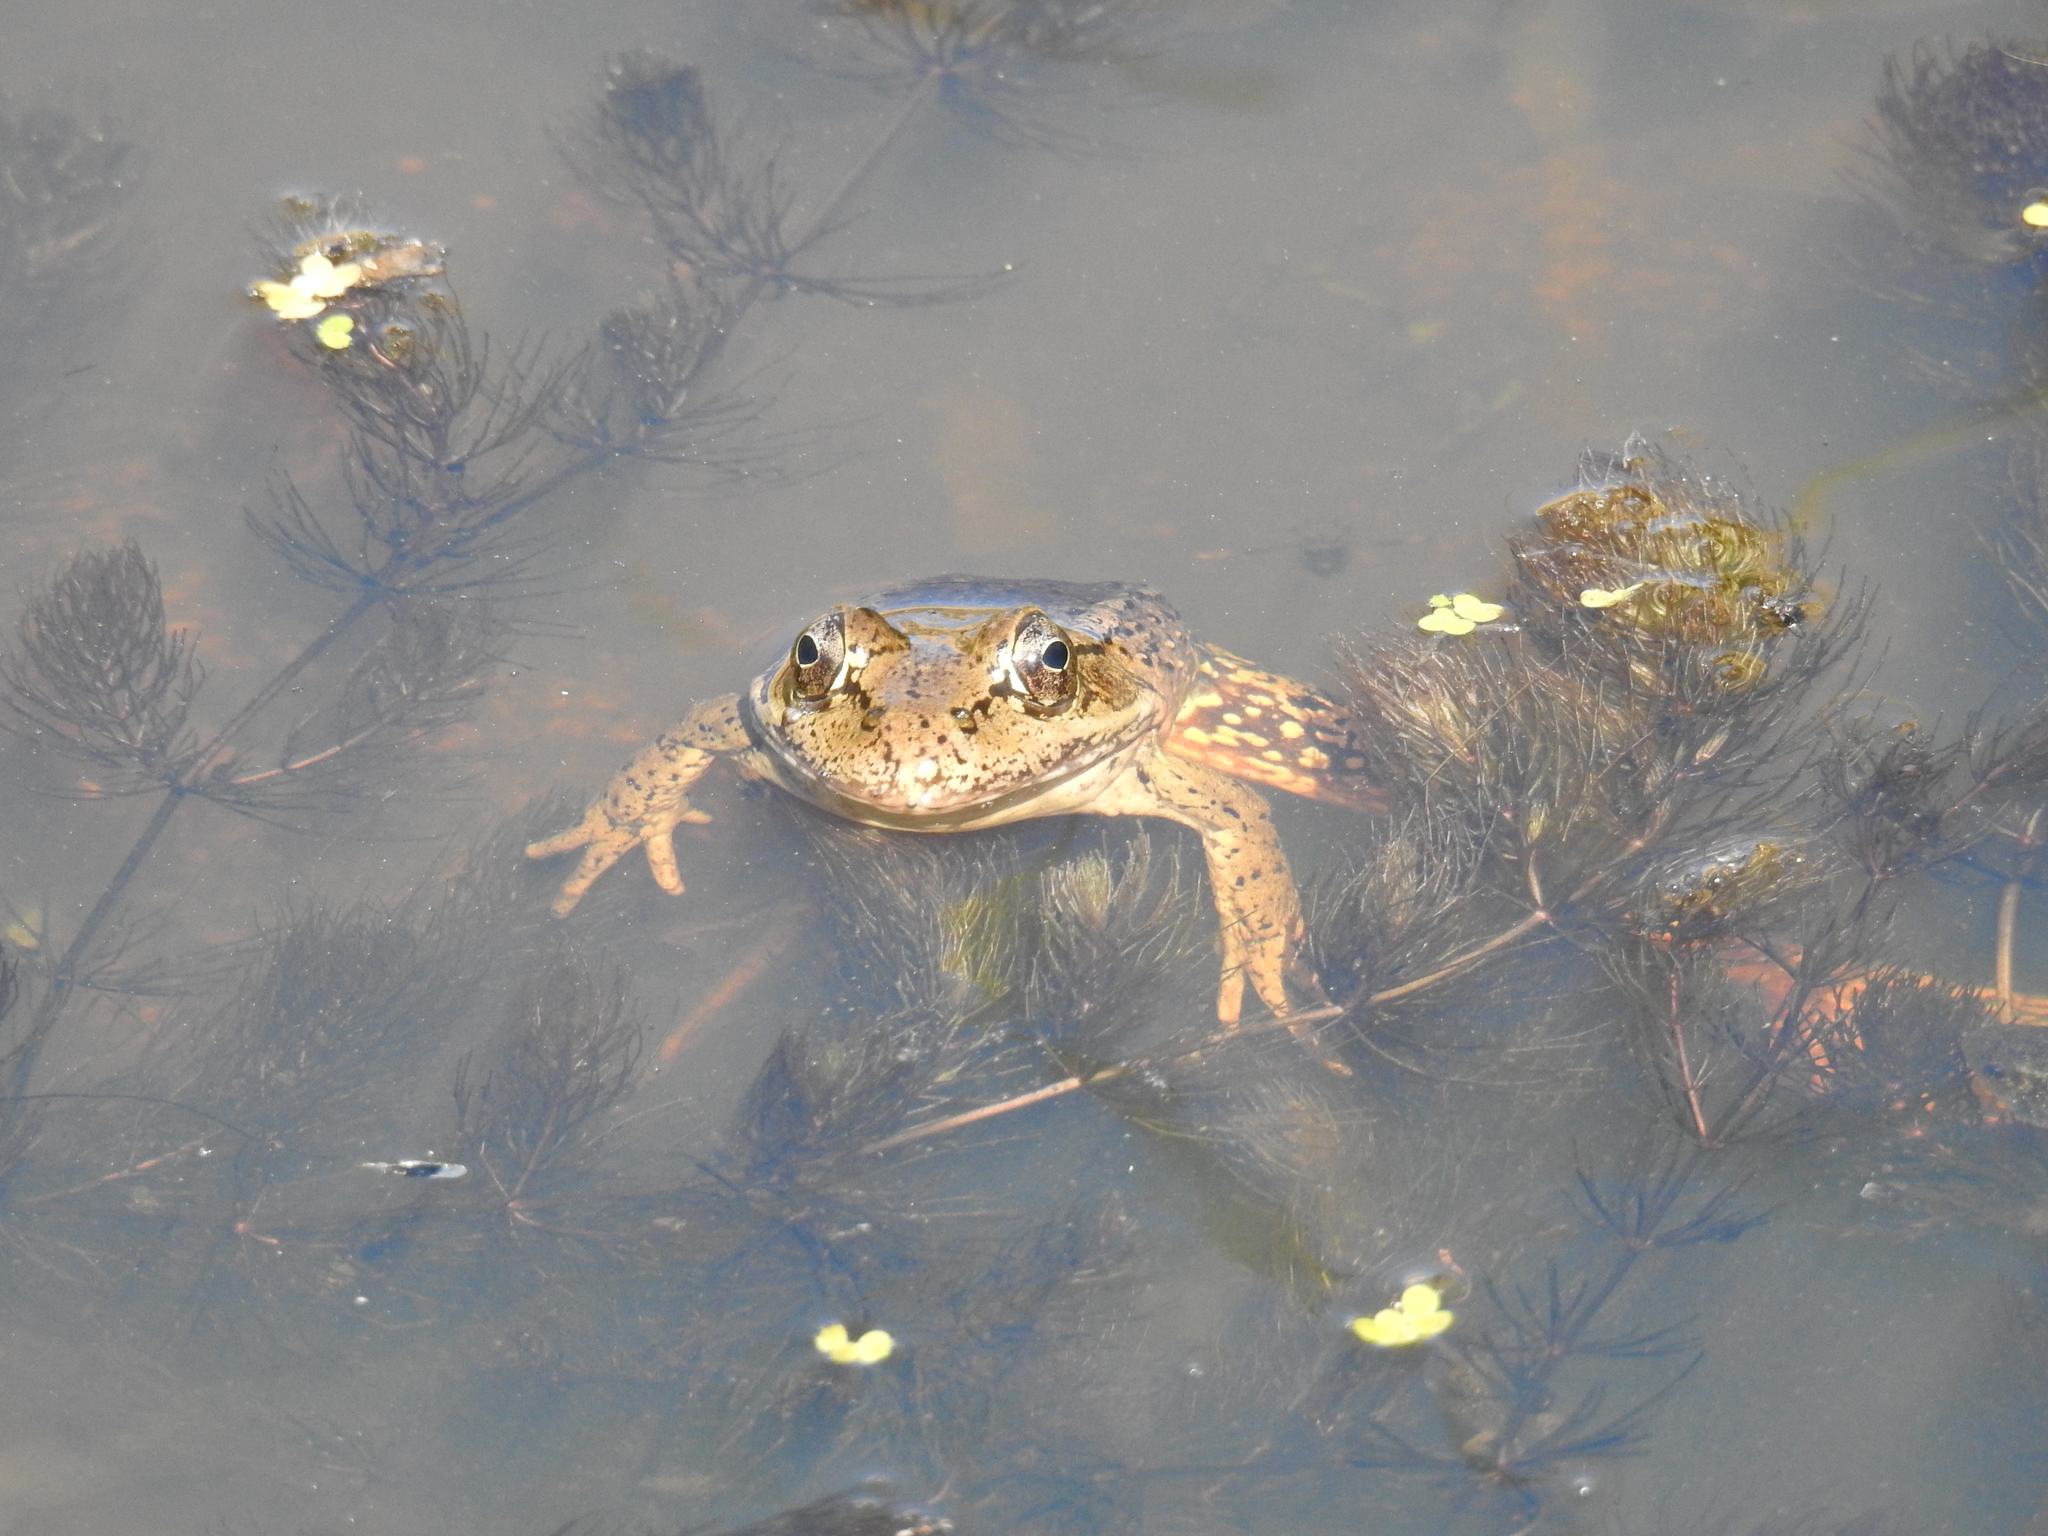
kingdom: Animalia
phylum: Chordata
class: Amphibia
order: Anura
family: Ranidae
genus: Rana
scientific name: Rana draytonii
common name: California red-legged frog
